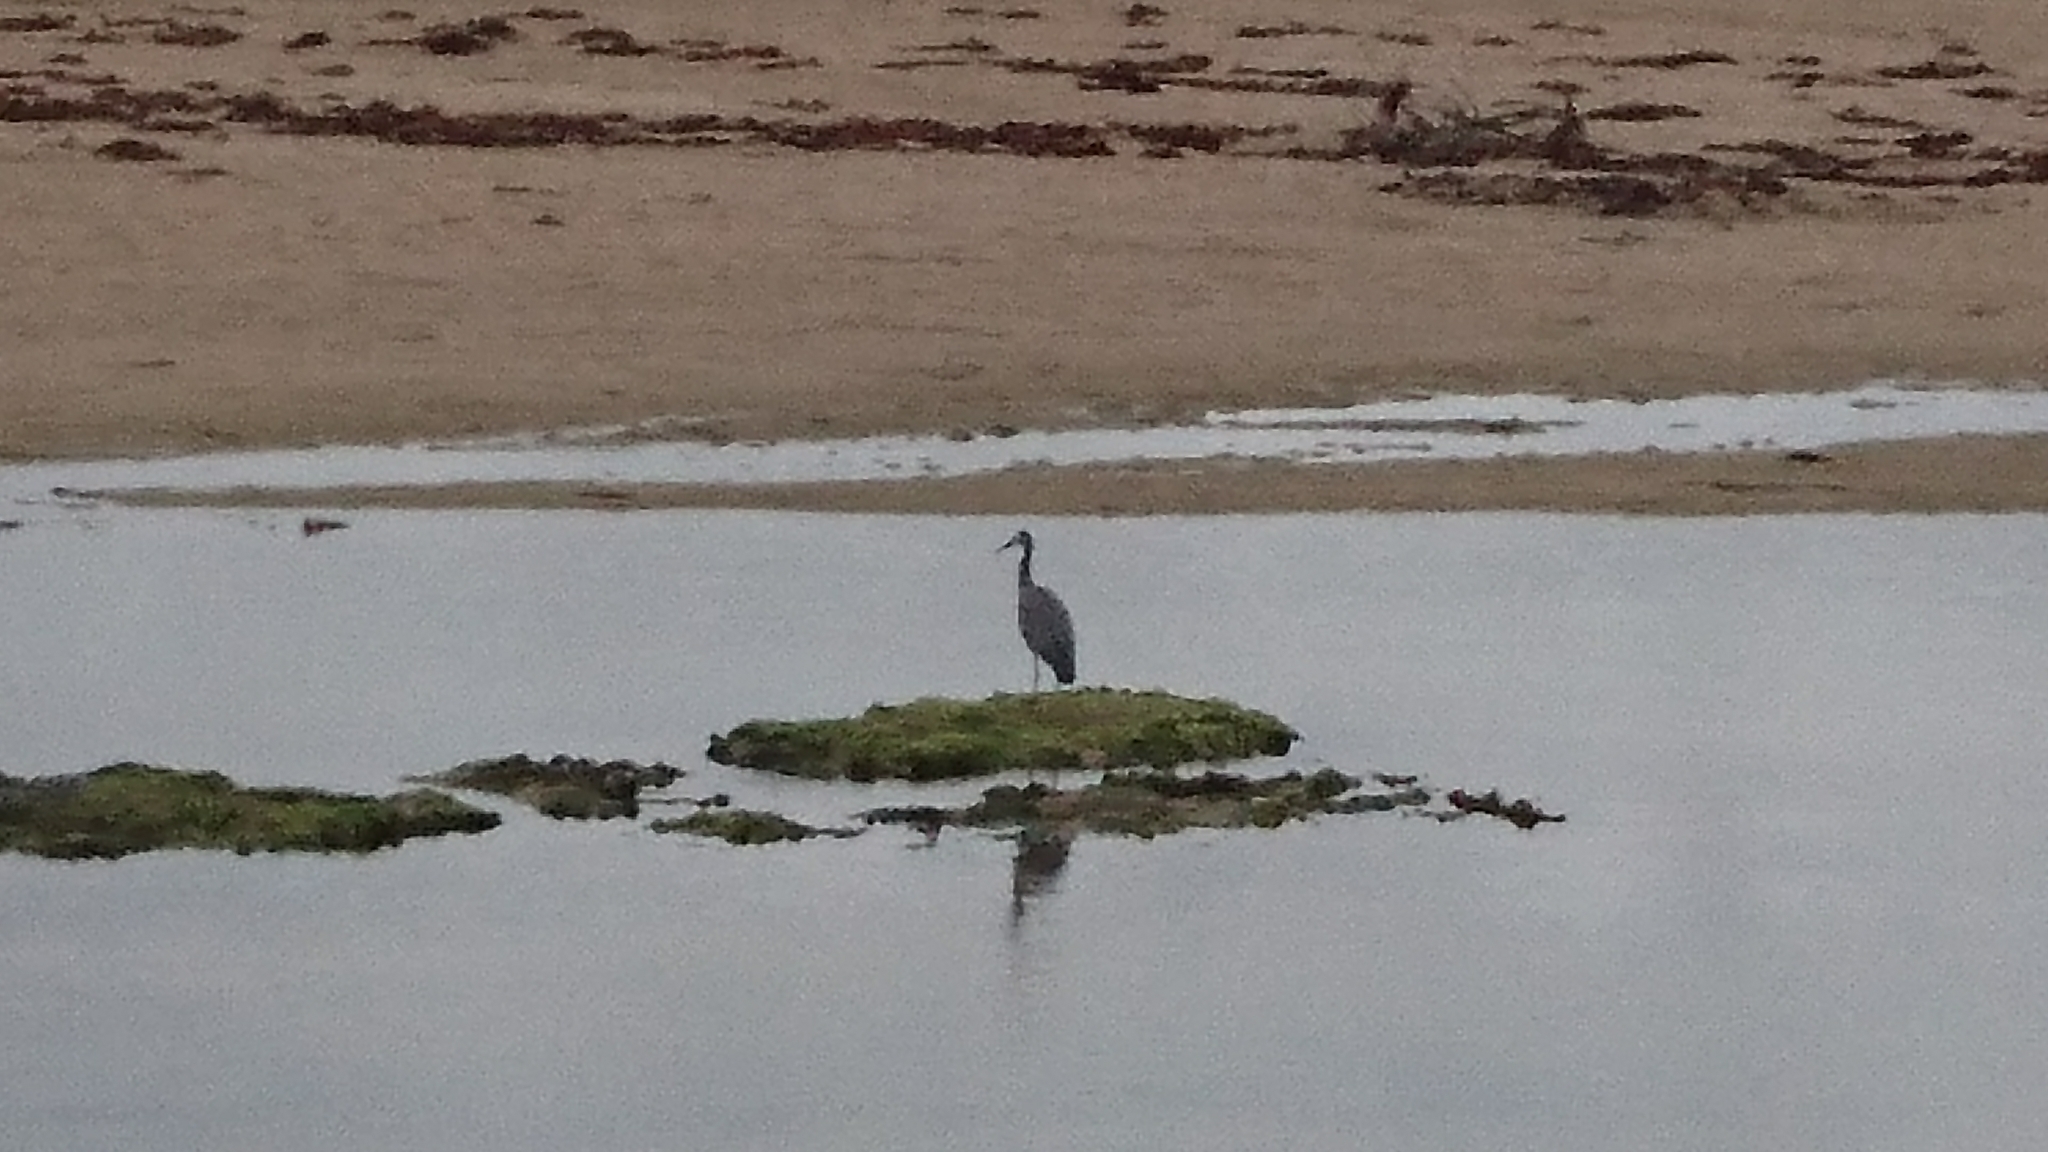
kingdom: Animalia
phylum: Chordata
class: Aves
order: Pelecaniformes
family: Ardeidae
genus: Egretta
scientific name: Egretta novaehollandiae
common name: White-faced heron
